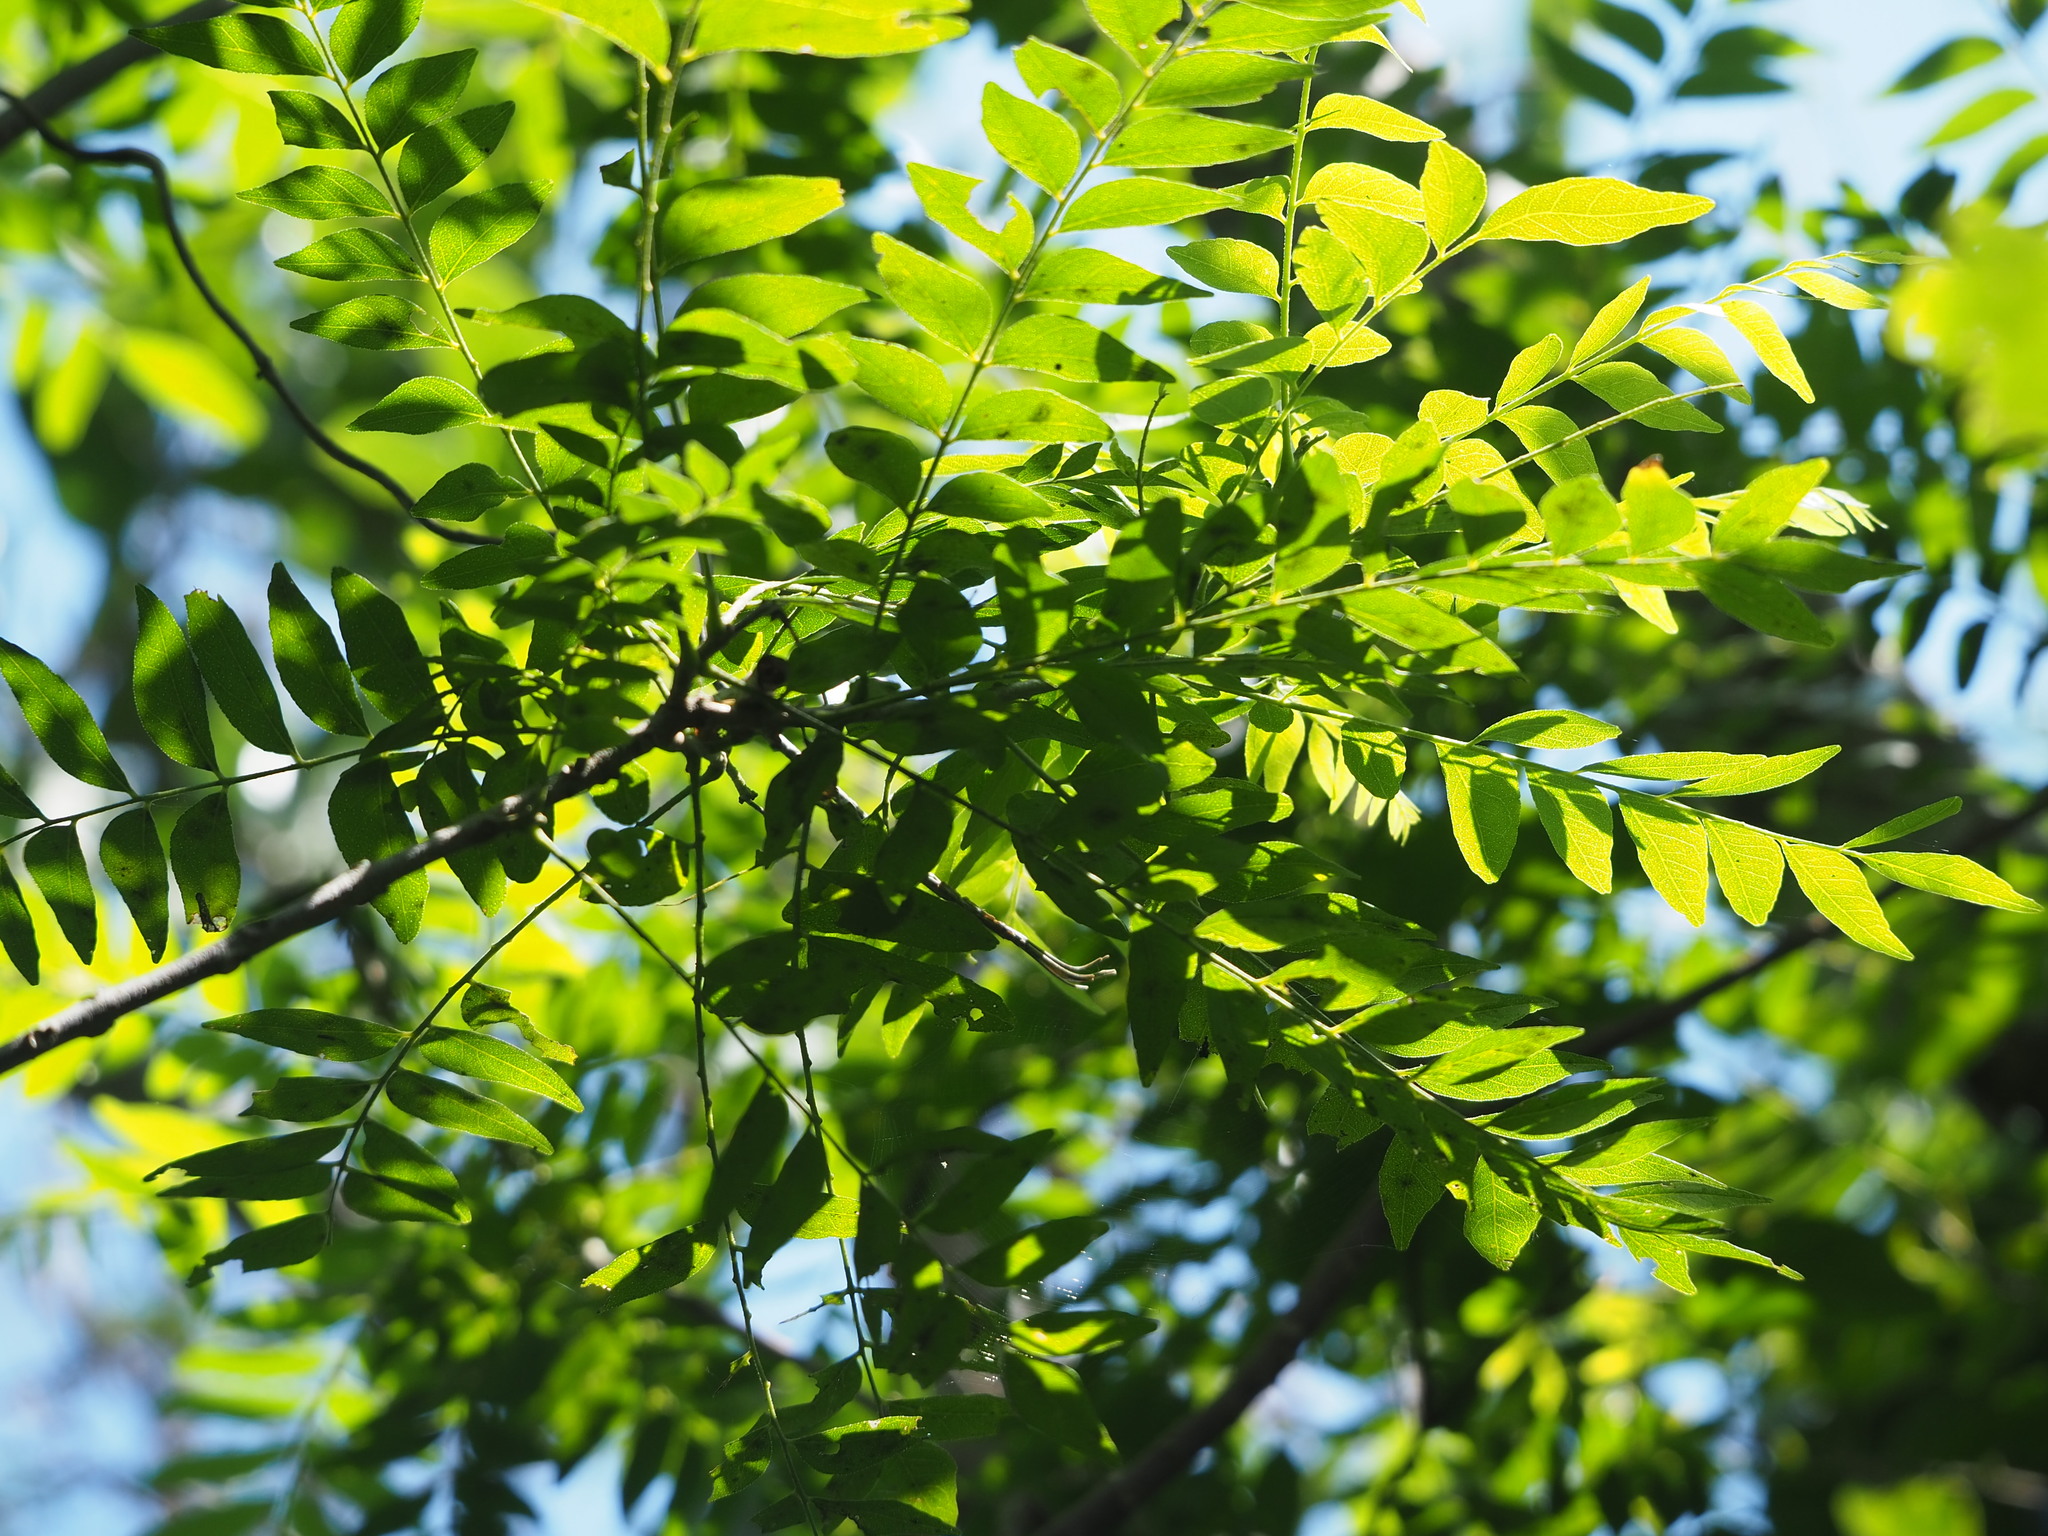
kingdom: Plantae
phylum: Tracheophyta
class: Magnoliopsida
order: Sapindales
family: Rutaceae
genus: Clausena
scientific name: Clausena excavata
